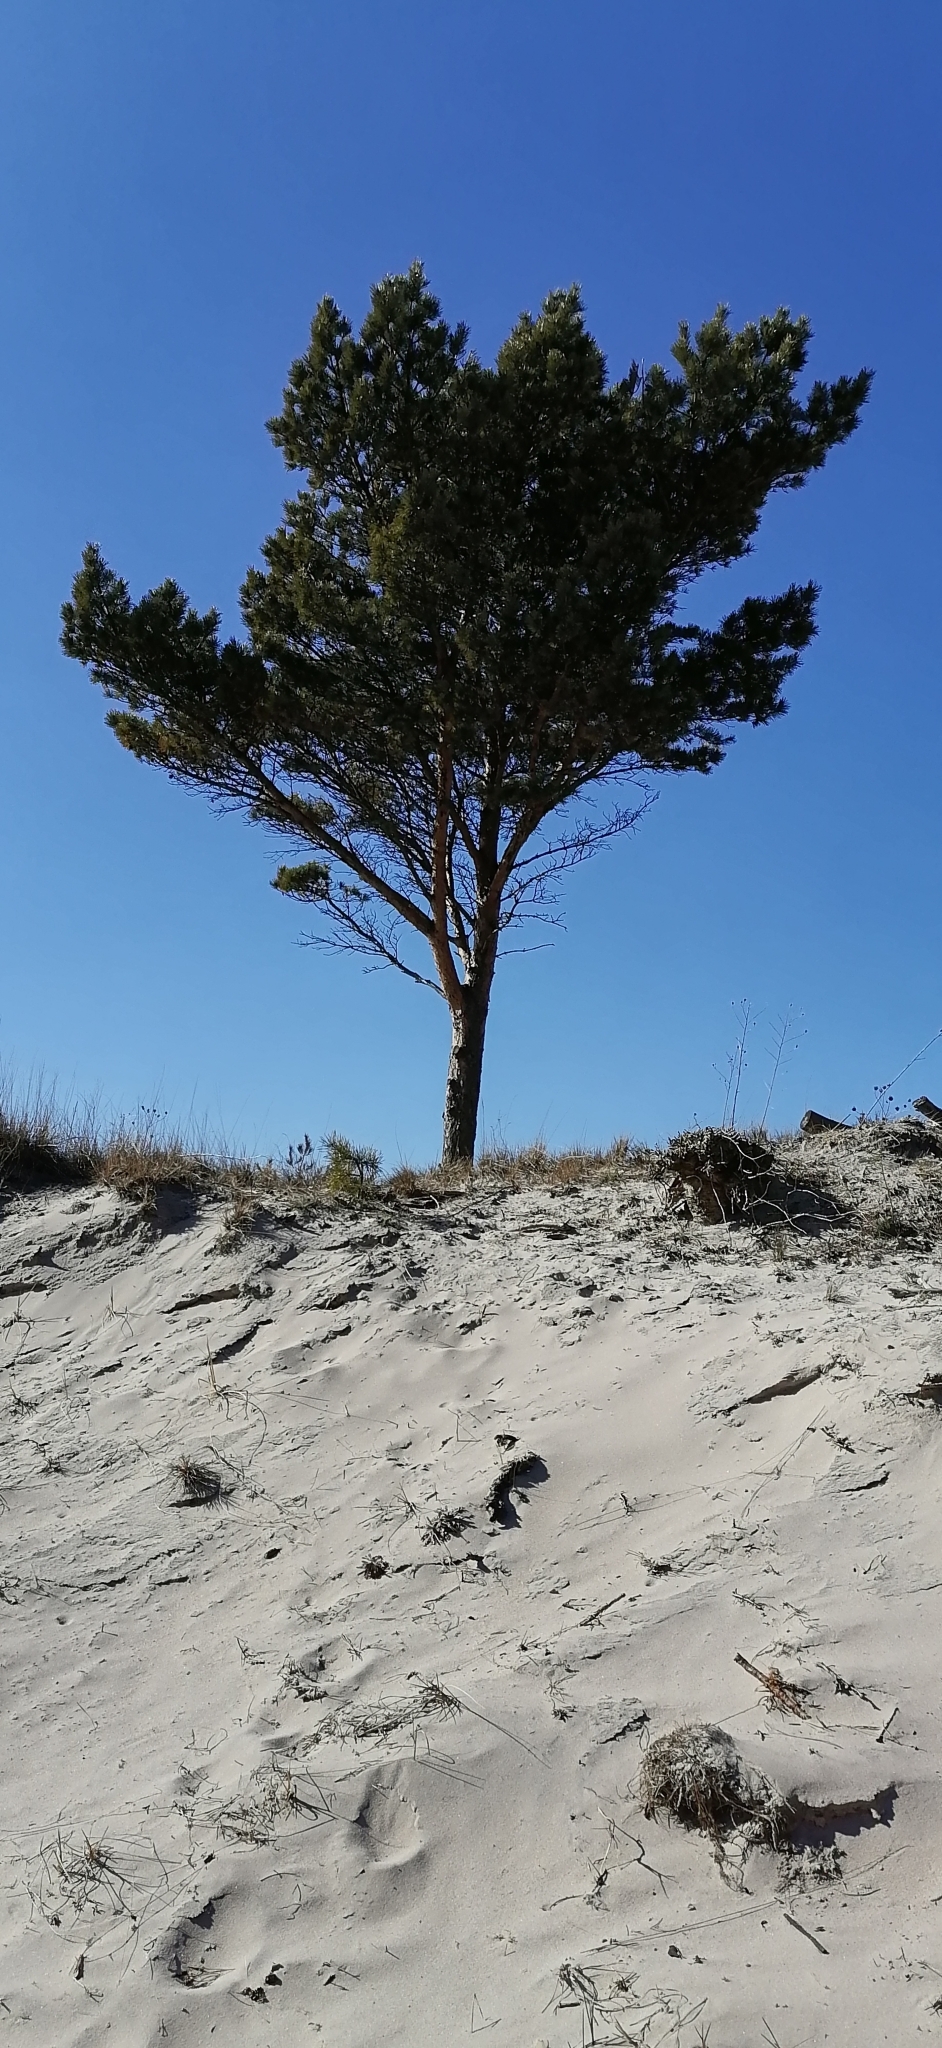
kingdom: Plantae
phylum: Tracheophyta
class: Pinopsida
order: Pinales
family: Pinaceae
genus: Pinus
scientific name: Pinus sylvestris
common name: Scots pine
